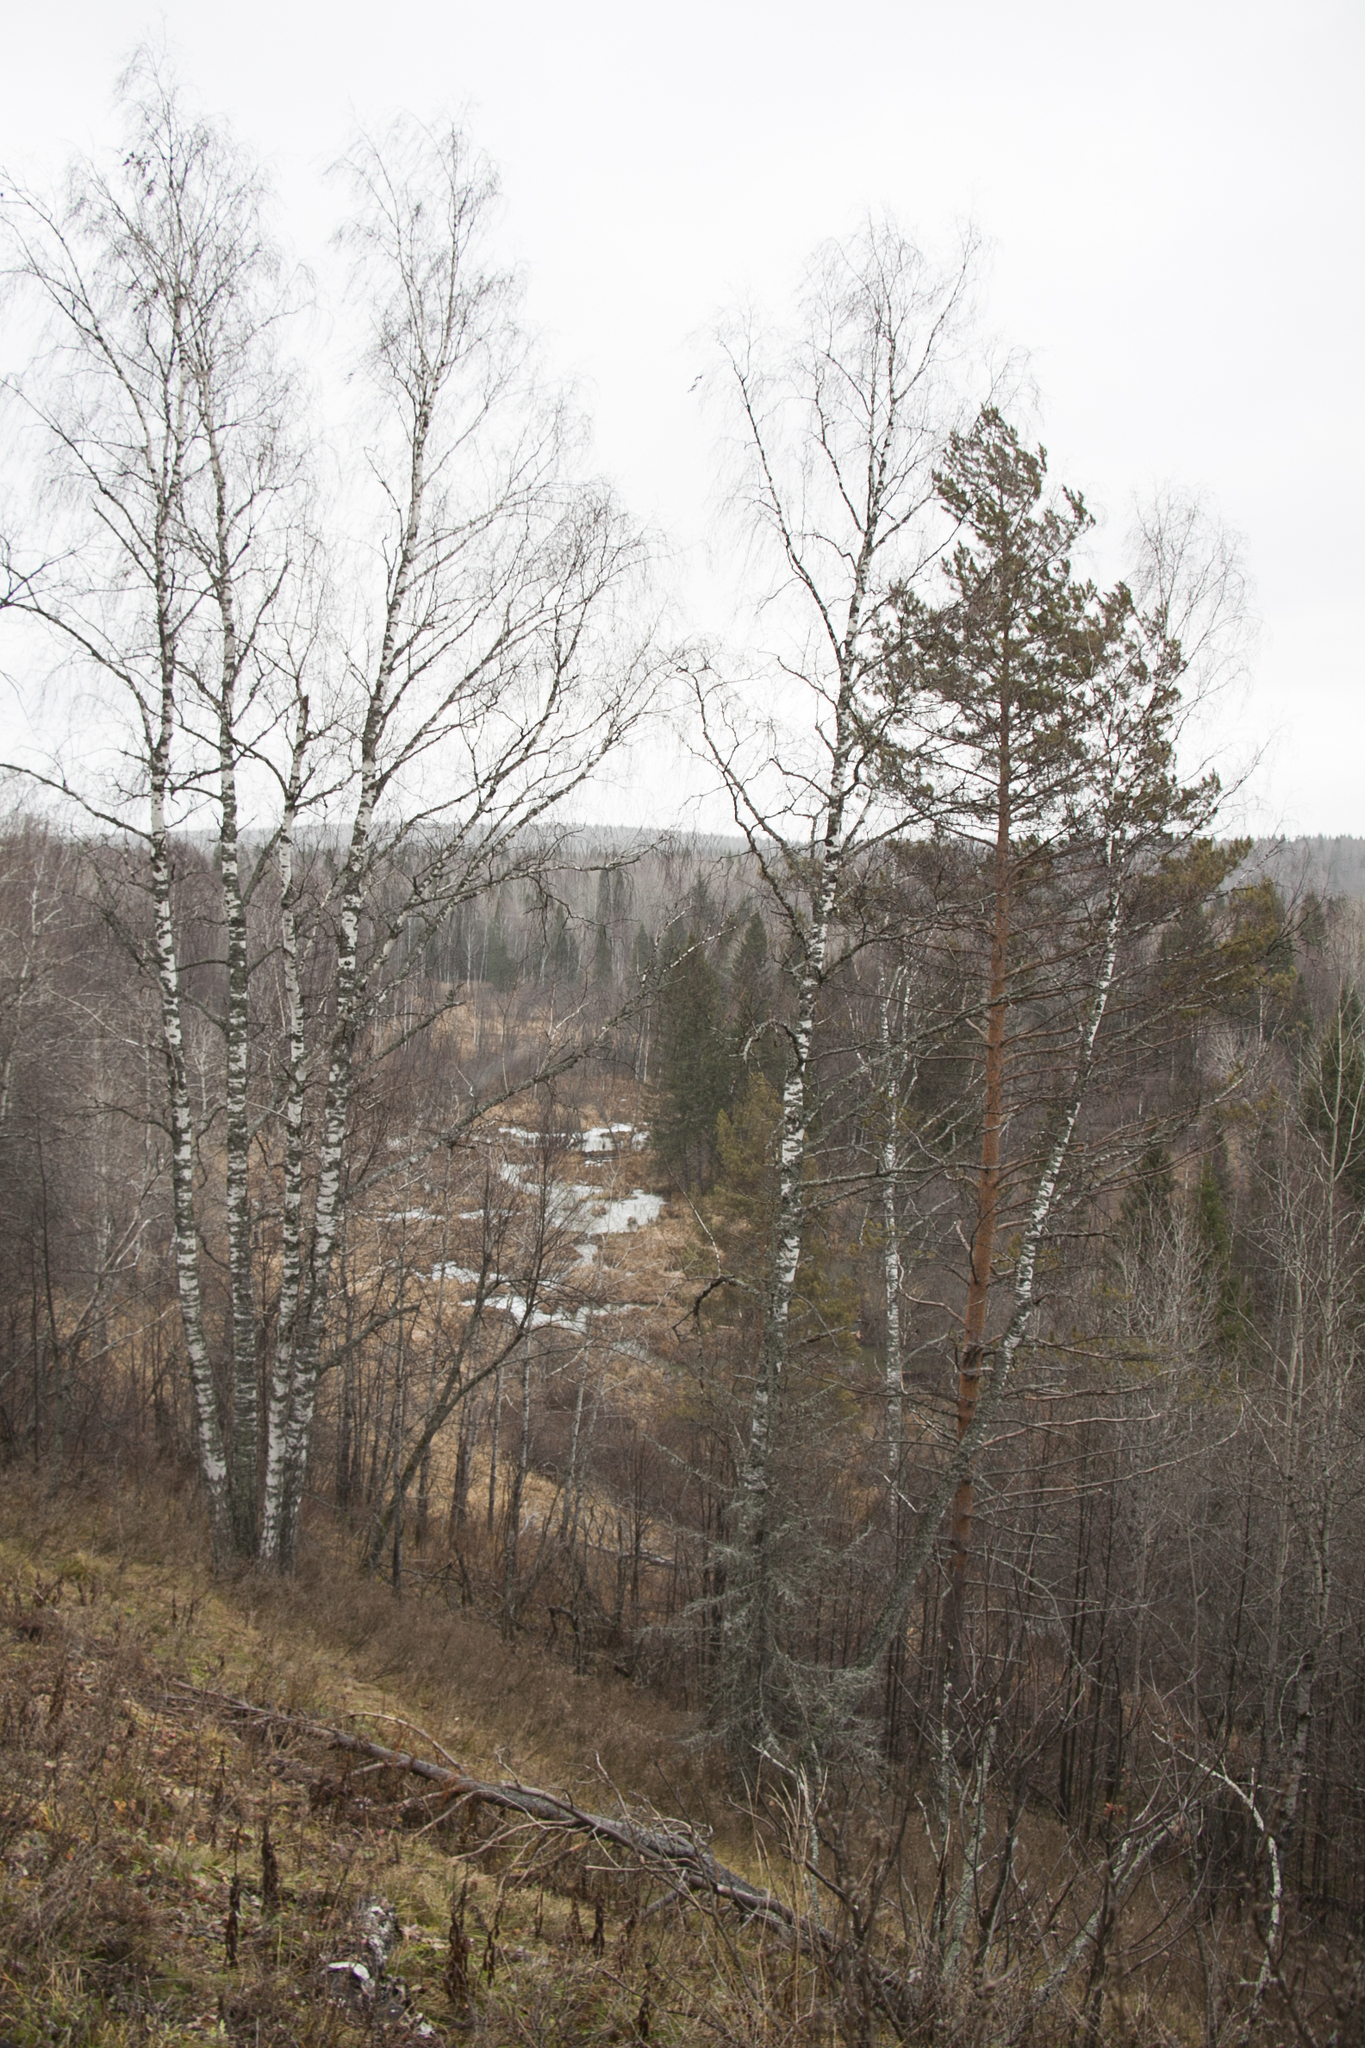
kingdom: Plantae
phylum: Tracheophyta
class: Magnoliopsida
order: Fagales
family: Betulaceae
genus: Betula
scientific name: Betula pendula
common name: Silver birch
